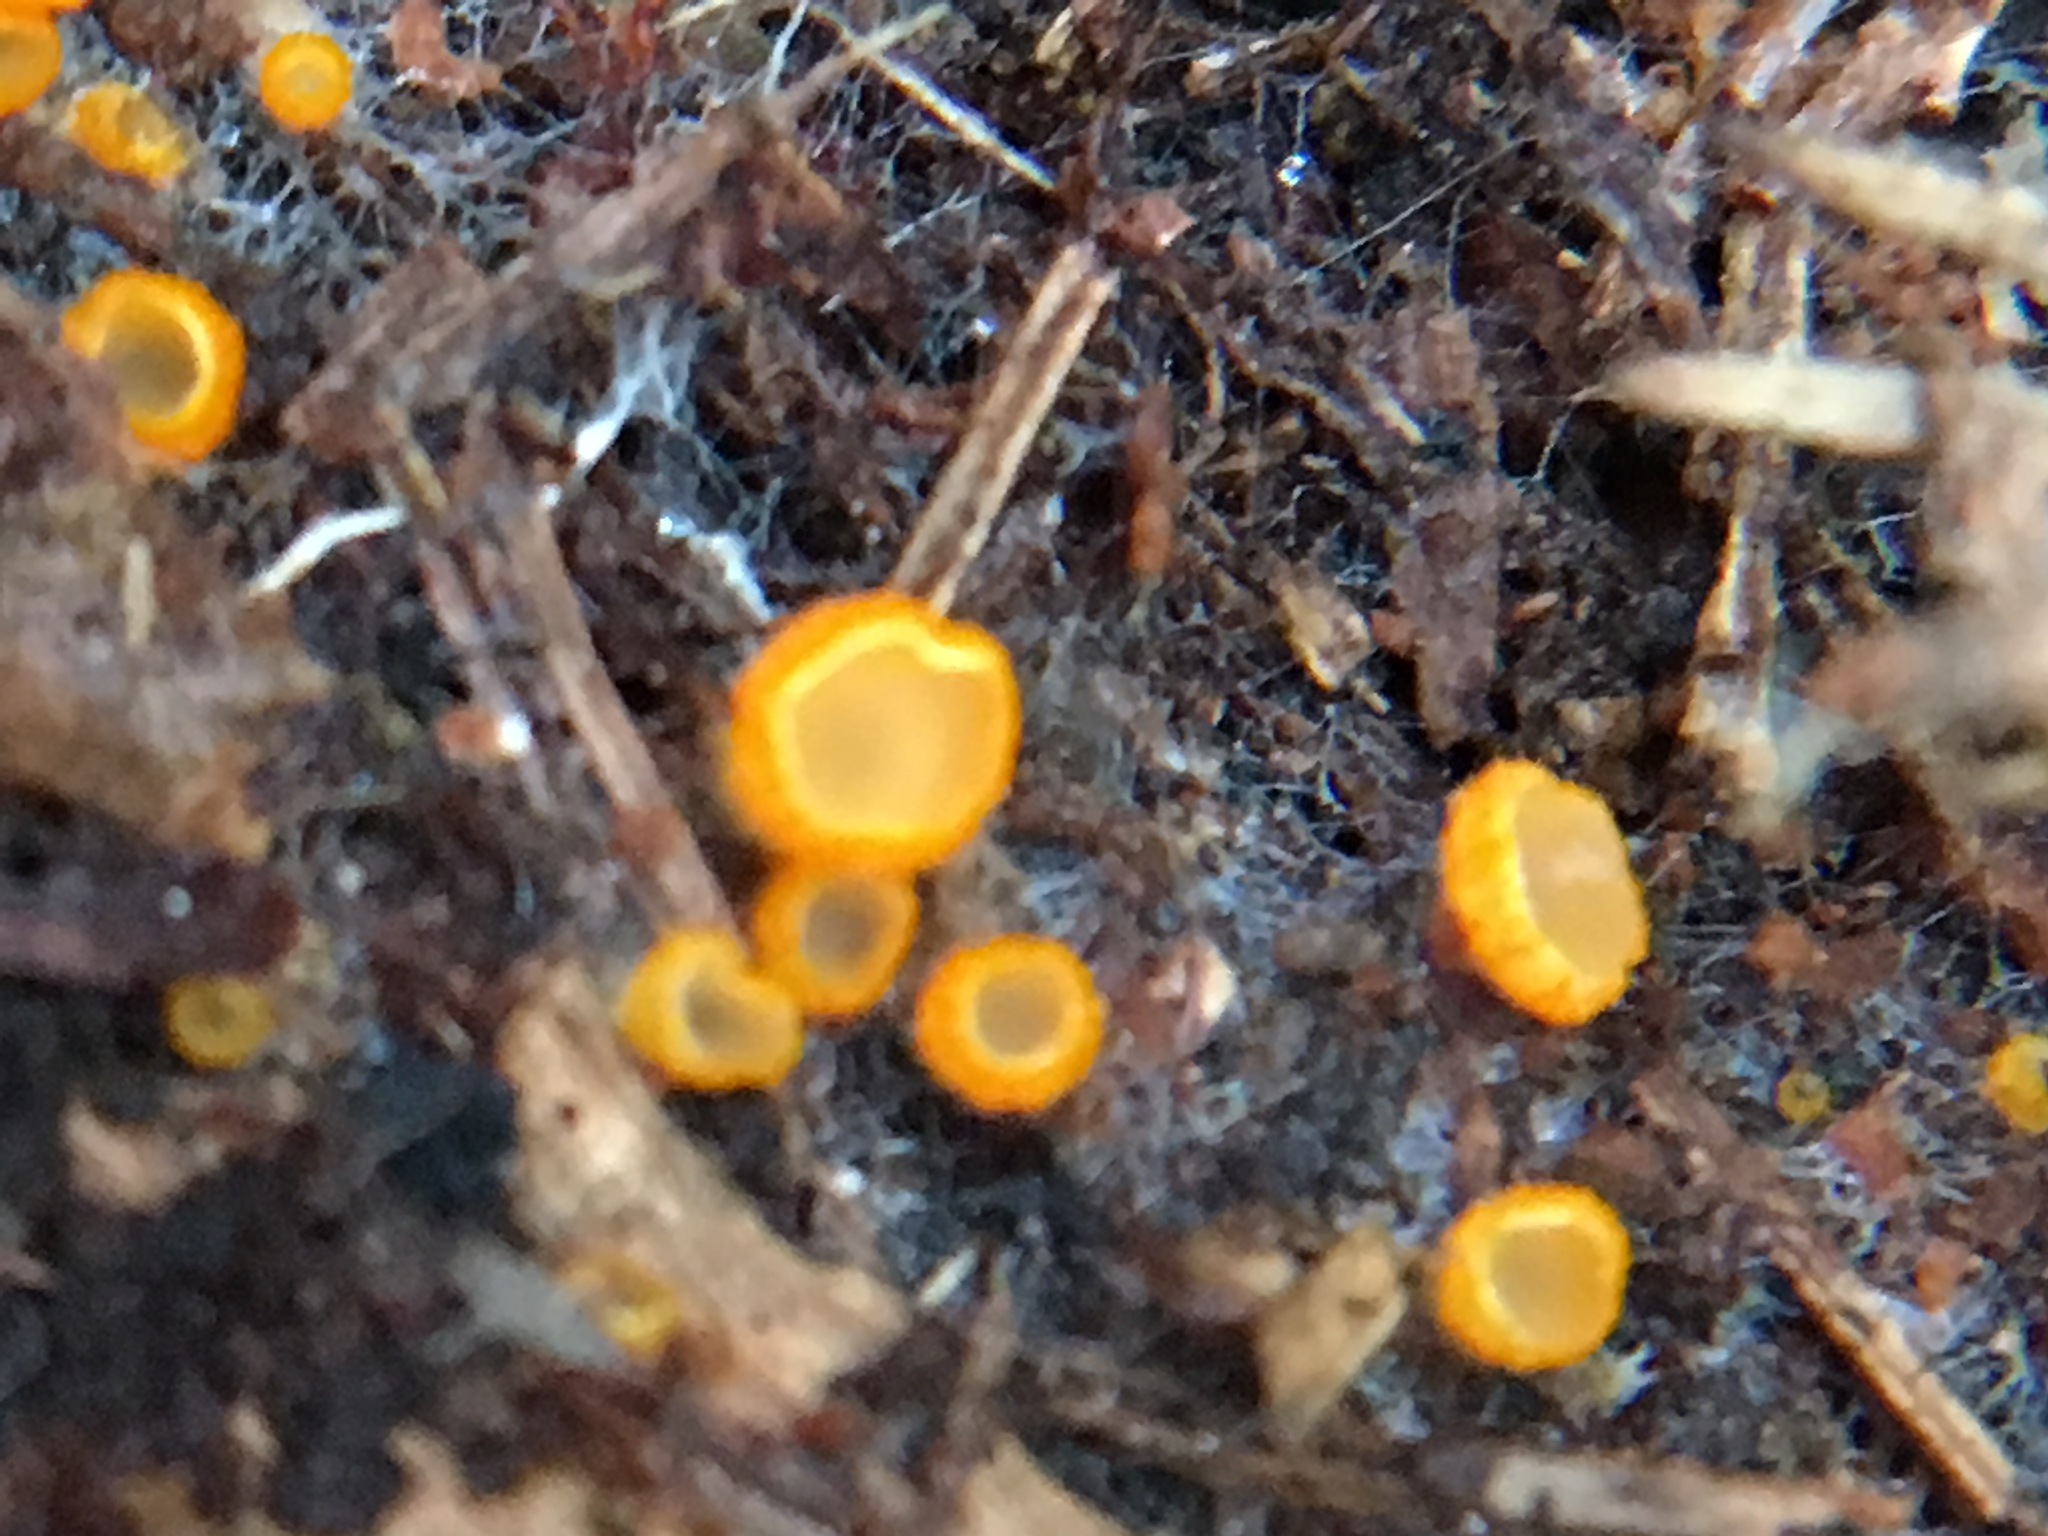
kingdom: Fungi
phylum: Ascomycota
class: Leotiomycetes
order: Helotiales
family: Arachnopezizaceae
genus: Arachnopeziza
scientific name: Arachnopeziza aurelia
